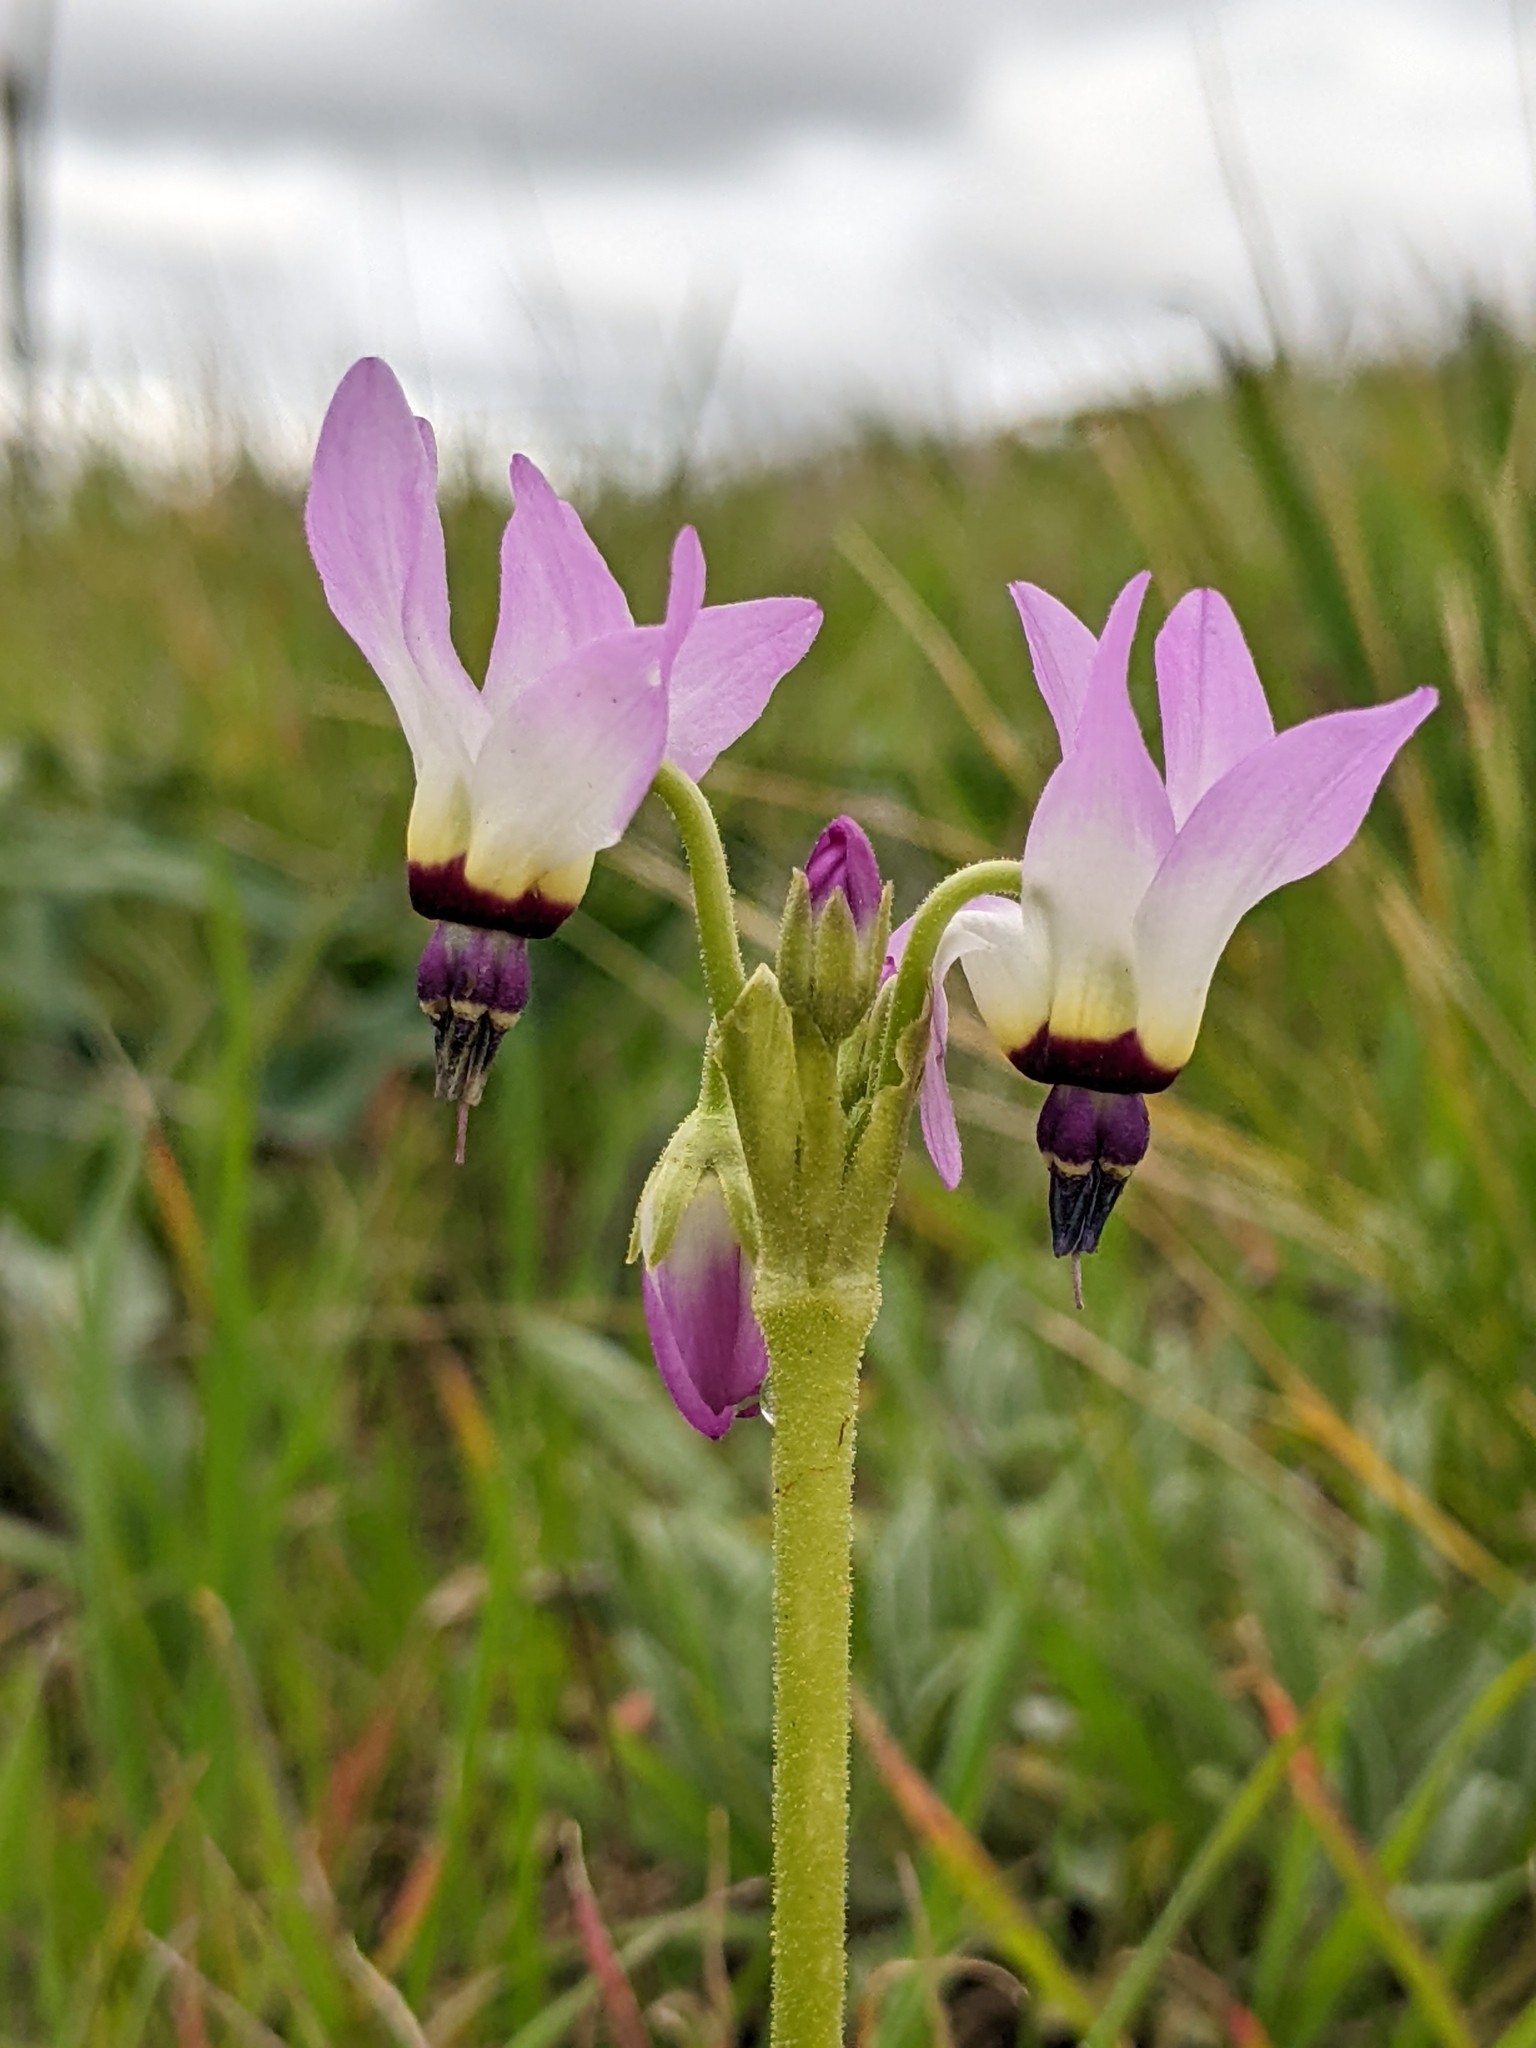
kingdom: Plantae
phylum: Tracheophyta
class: Magnoliopsida
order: Ericales
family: Primulaceae
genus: Dodecatheon
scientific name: Dodecatheon clevelandii
